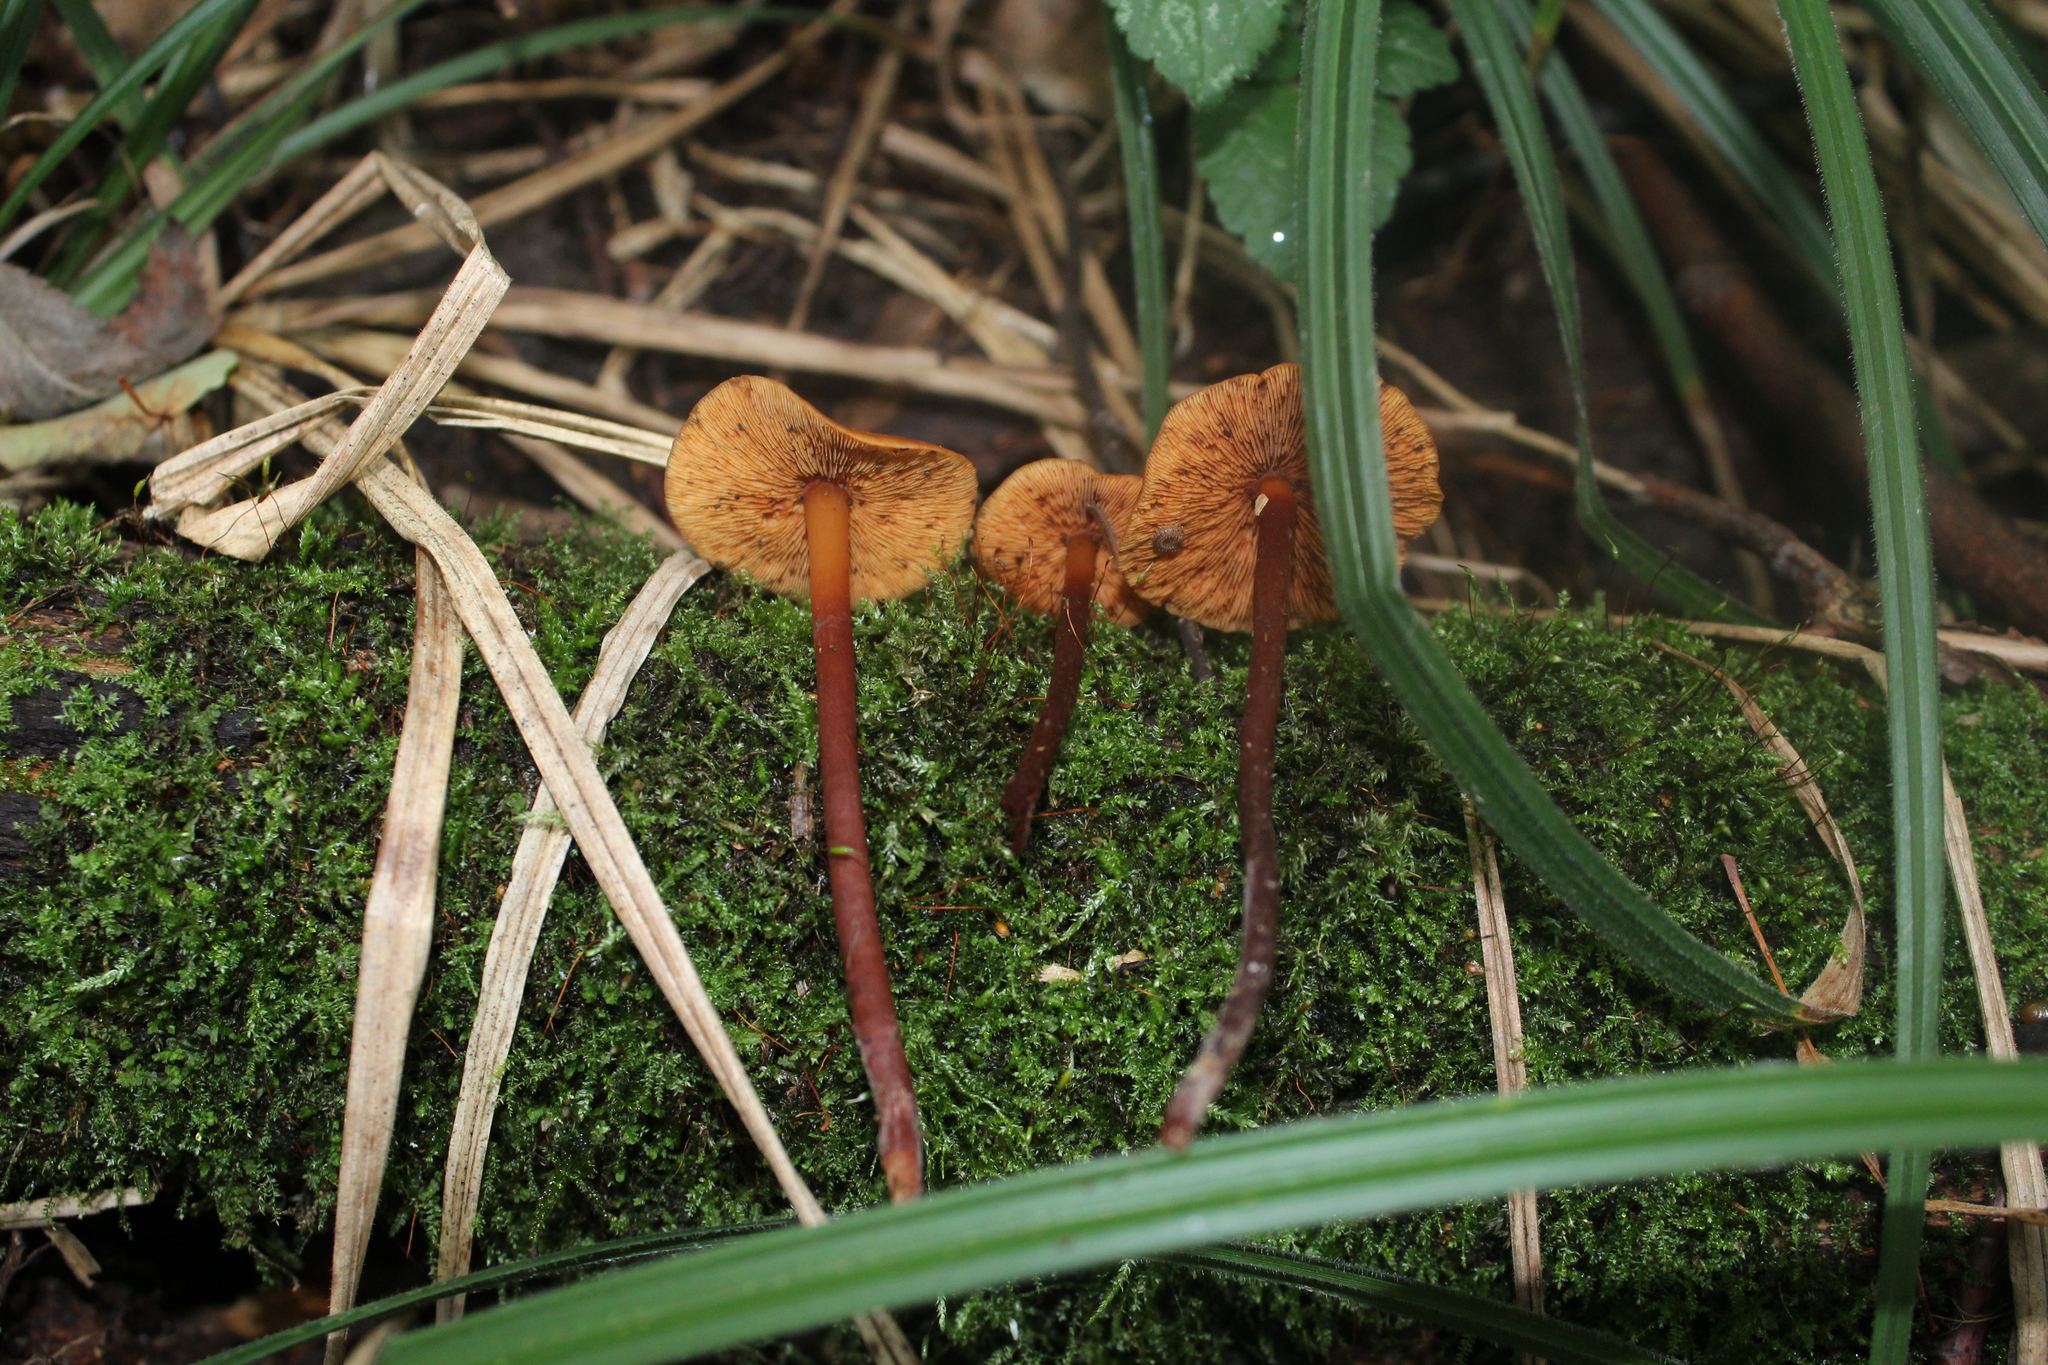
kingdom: Fungi
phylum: Basidiomycota
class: Agaricomycetes
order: Agaricales
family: Hymenogastraceae
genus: Phaeocollybia
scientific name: Phaeocollybia jennyae
